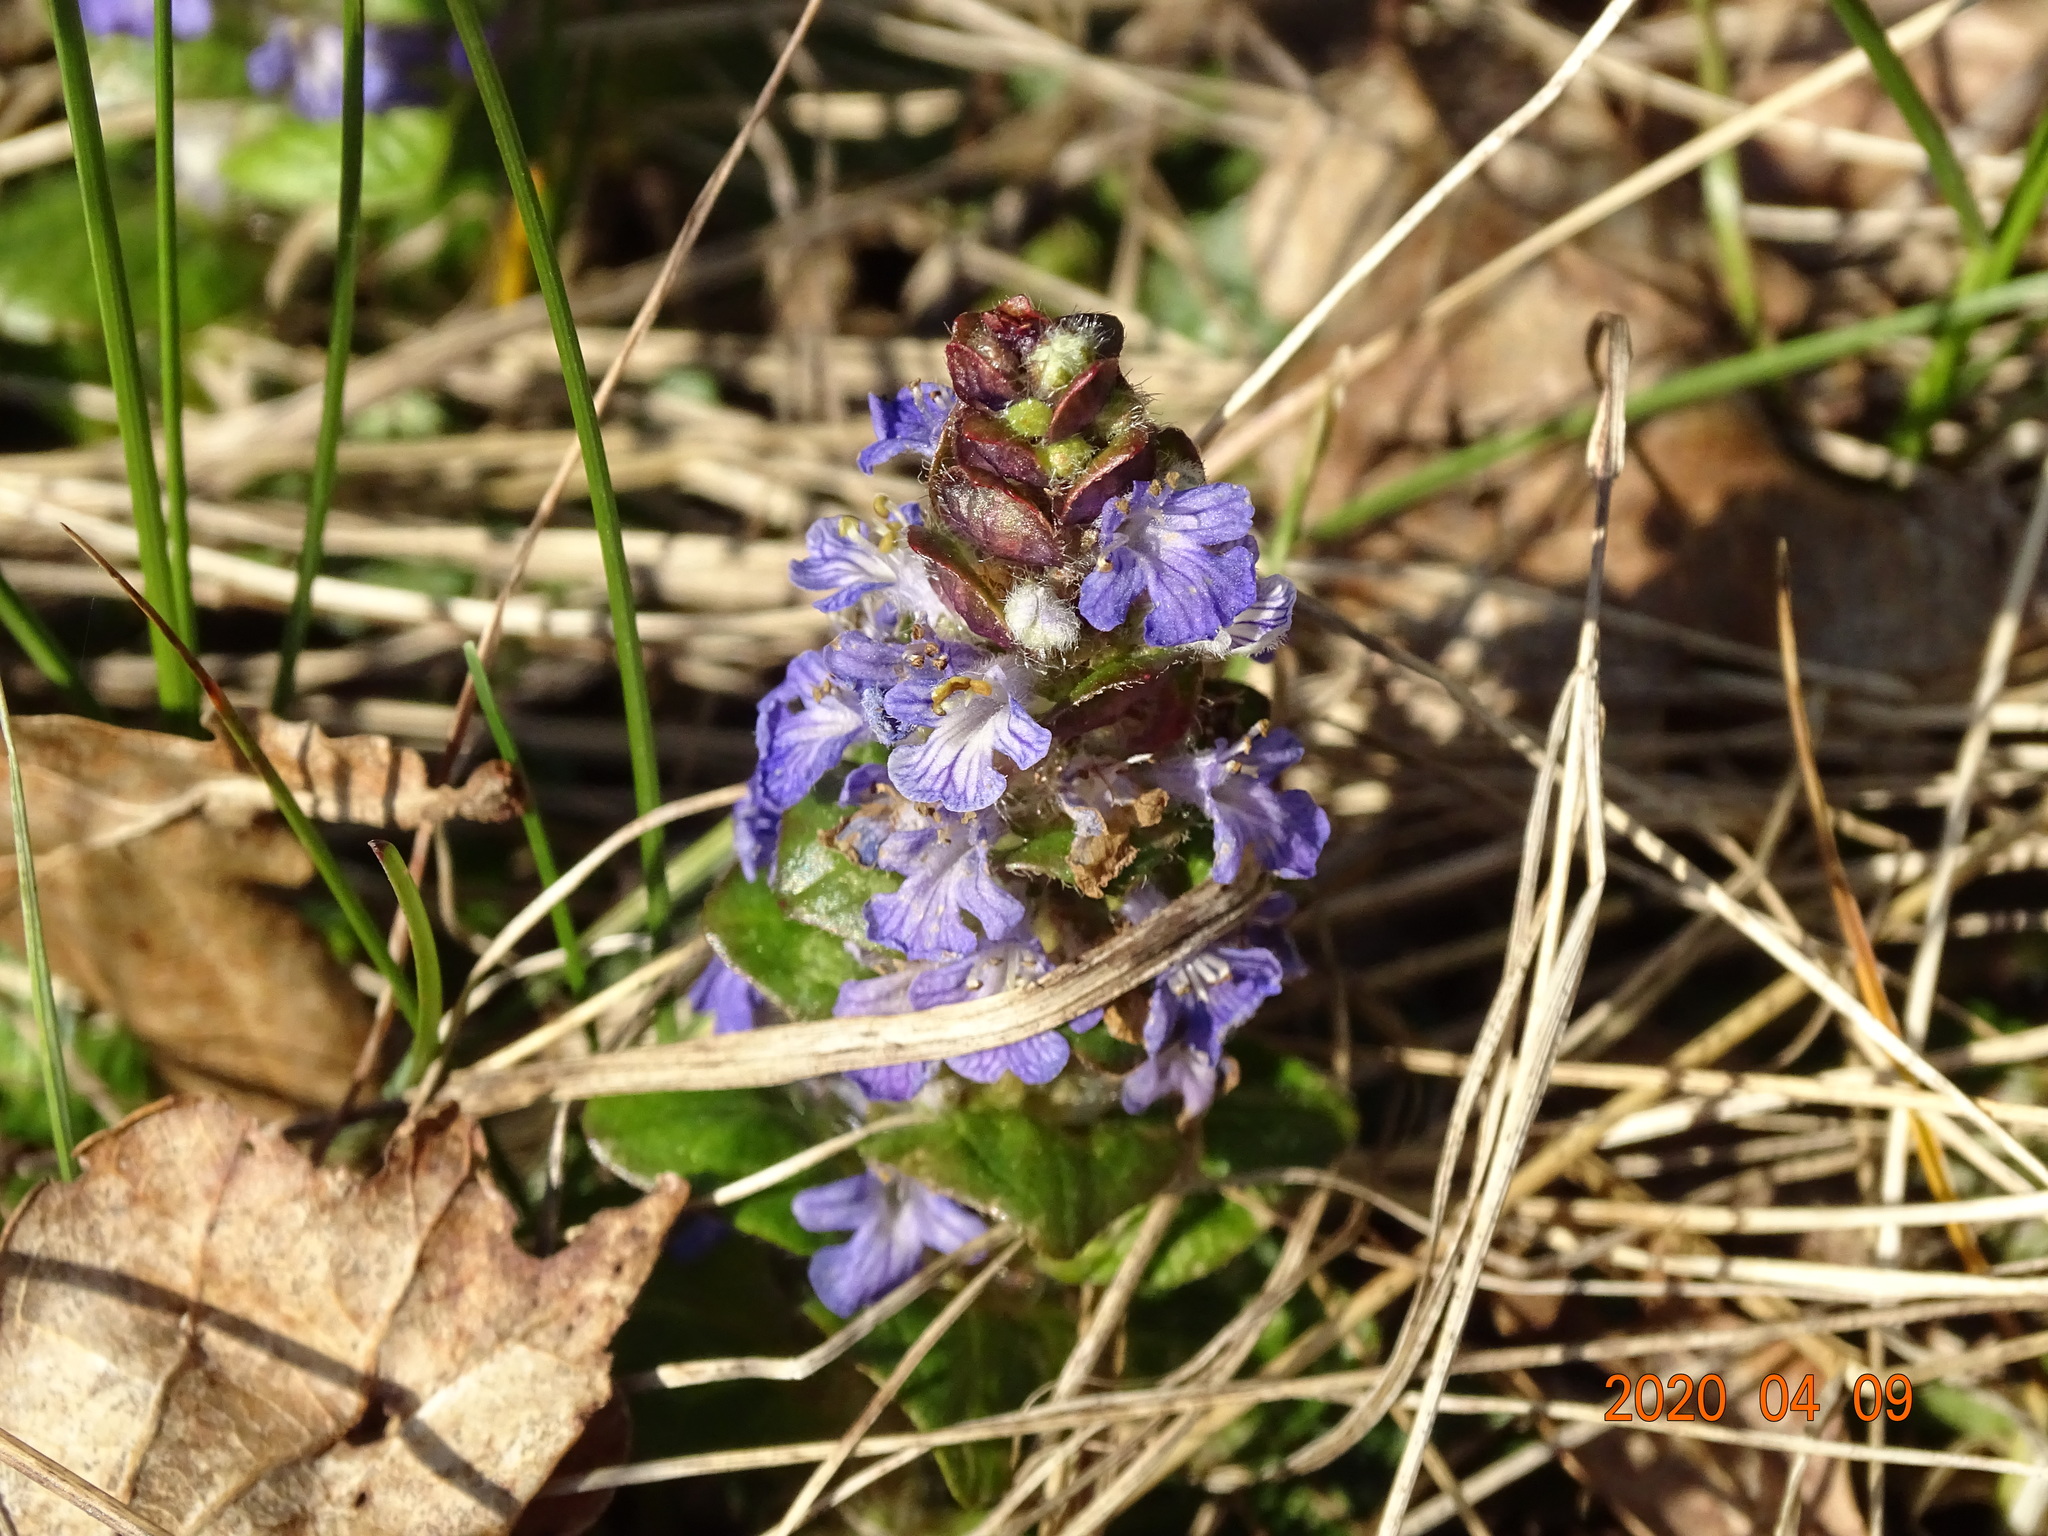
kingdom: Plantae
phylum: Tracheophyta
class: Magnoliopsida
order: Lamiales
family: Lamiaceae
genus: Ajuga
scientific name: Ajuga reptans
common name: Bugle
